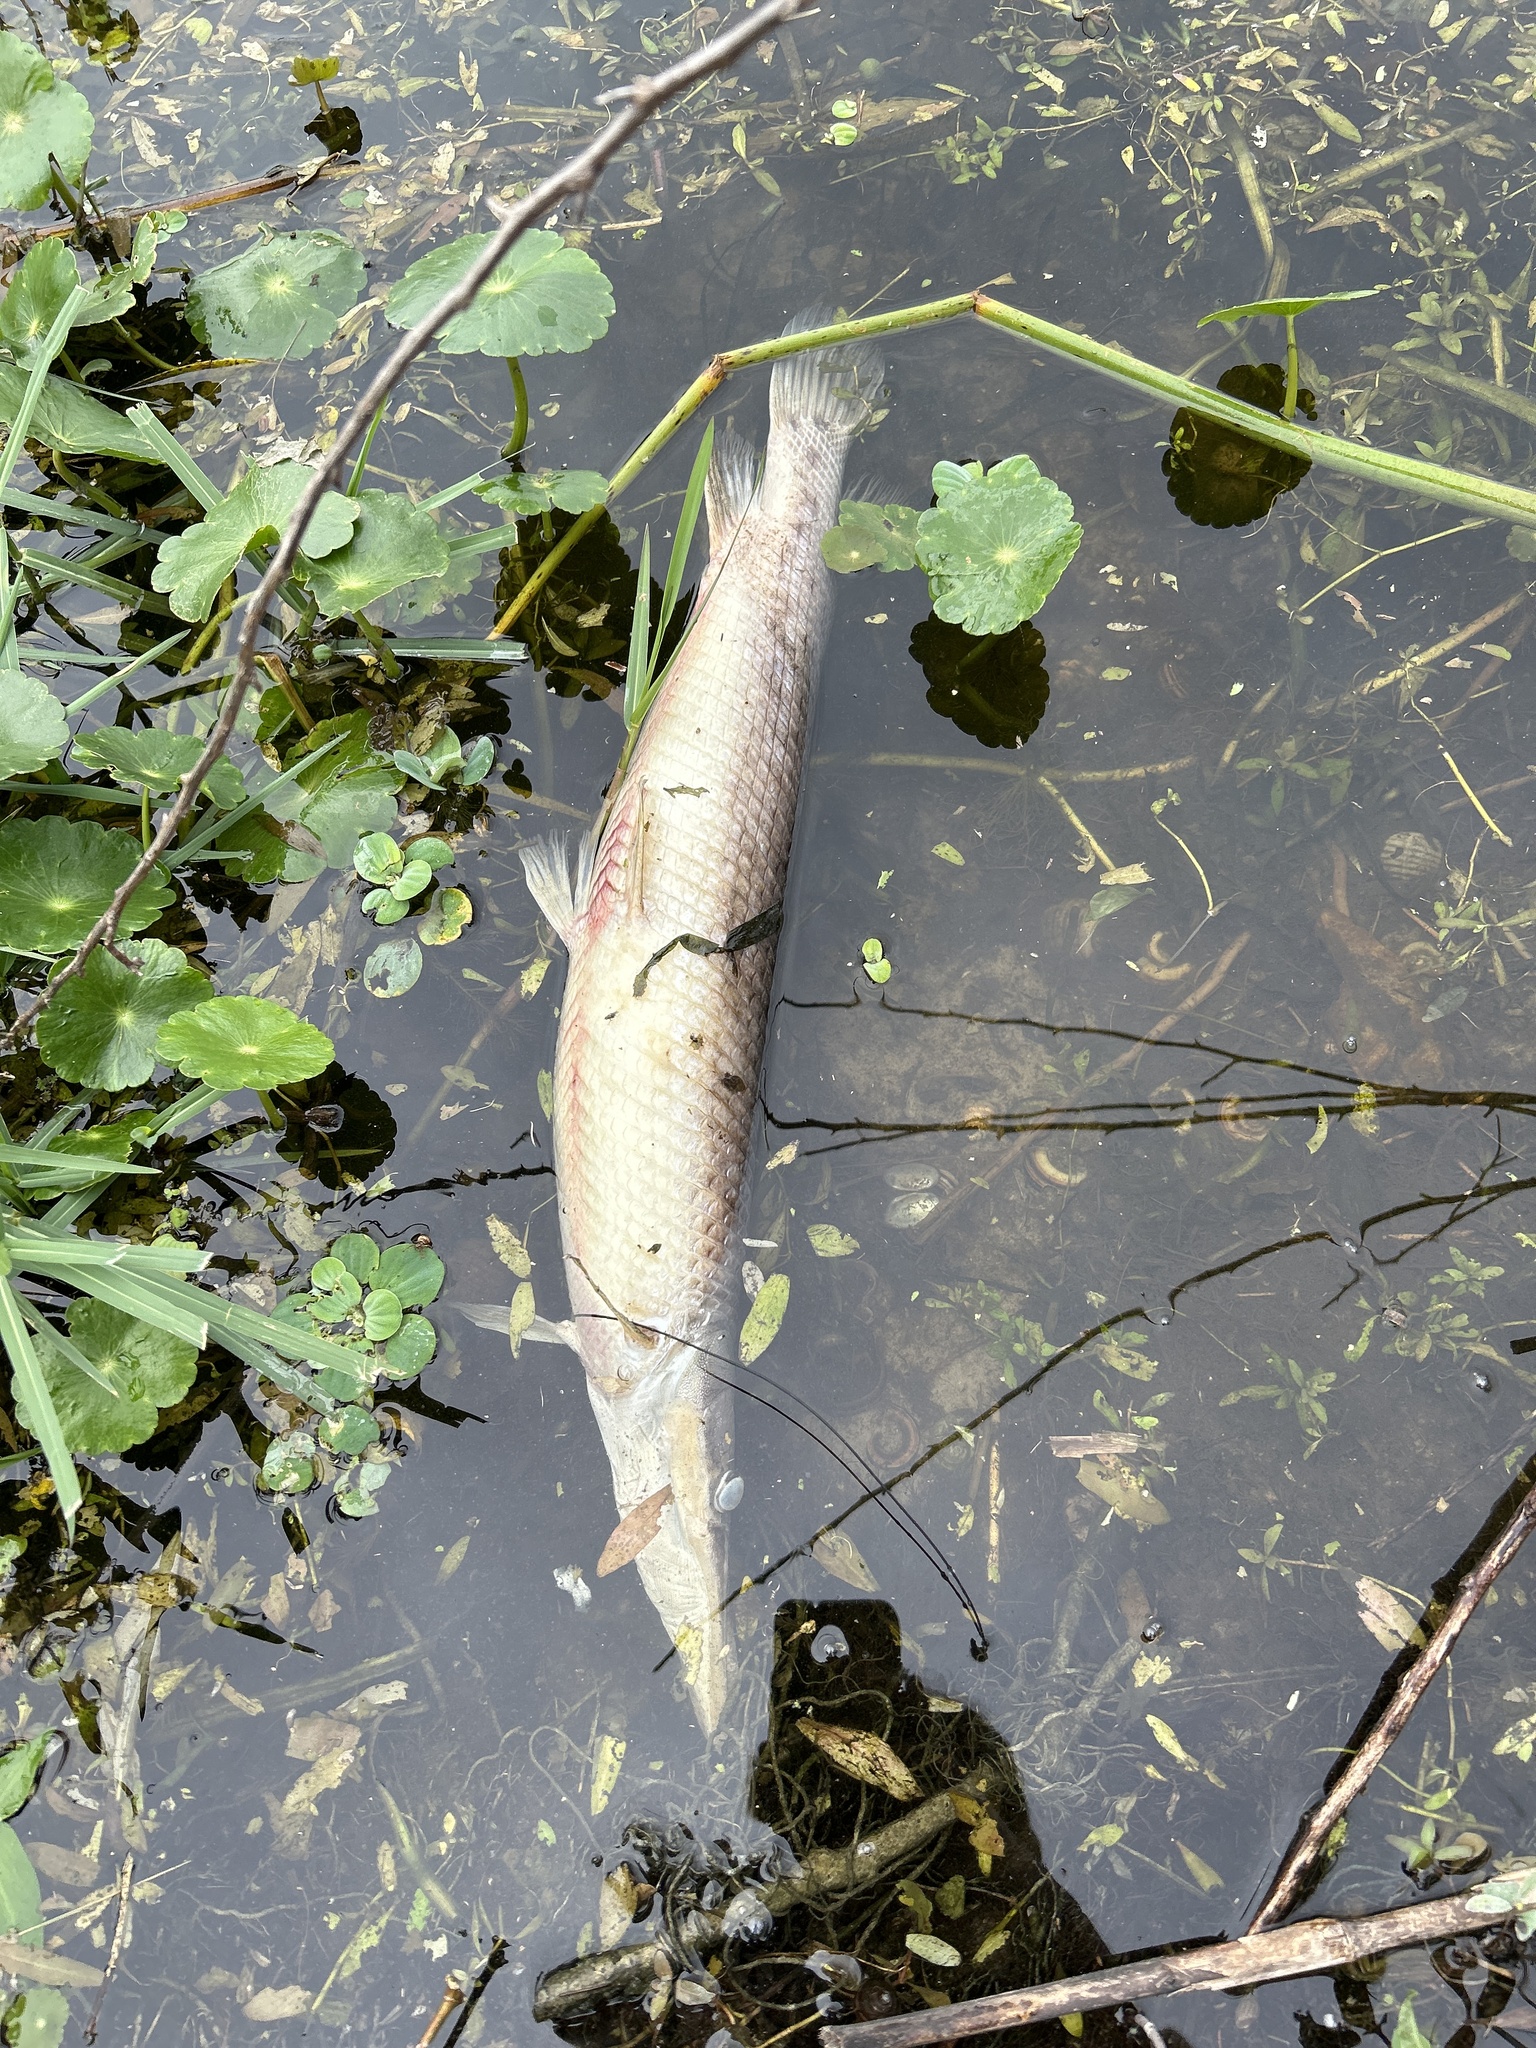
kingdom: Animalia
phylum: Chordata
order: Lepisosteiformes
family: Lepisosteidae
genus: Lepisosteus
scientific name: Lepisosteus platyrhincus
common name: Florida gar
